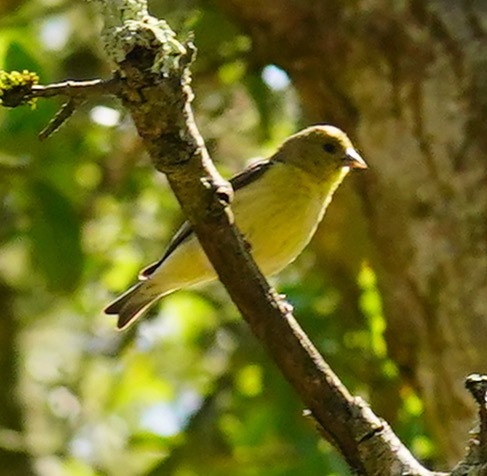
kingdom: Animalia
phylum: Chordata
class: Aves
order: Passeriformes
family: Fringillidae
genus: Spinus
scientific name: Spinus psaltria
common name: Lesser goldfinch
